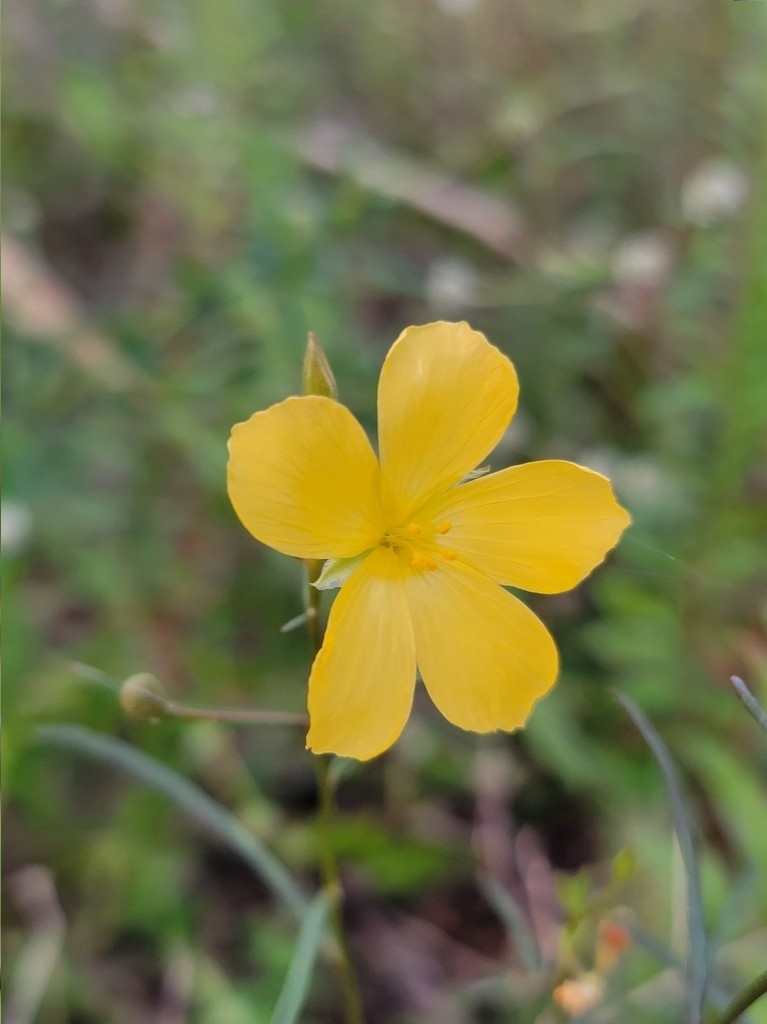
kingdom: Plantae
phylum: Tracheophyta
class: Magnoliopsida
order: Malpighiales
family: Turneraceae
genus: Piriqueta
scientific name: Piriqueta cistoides
